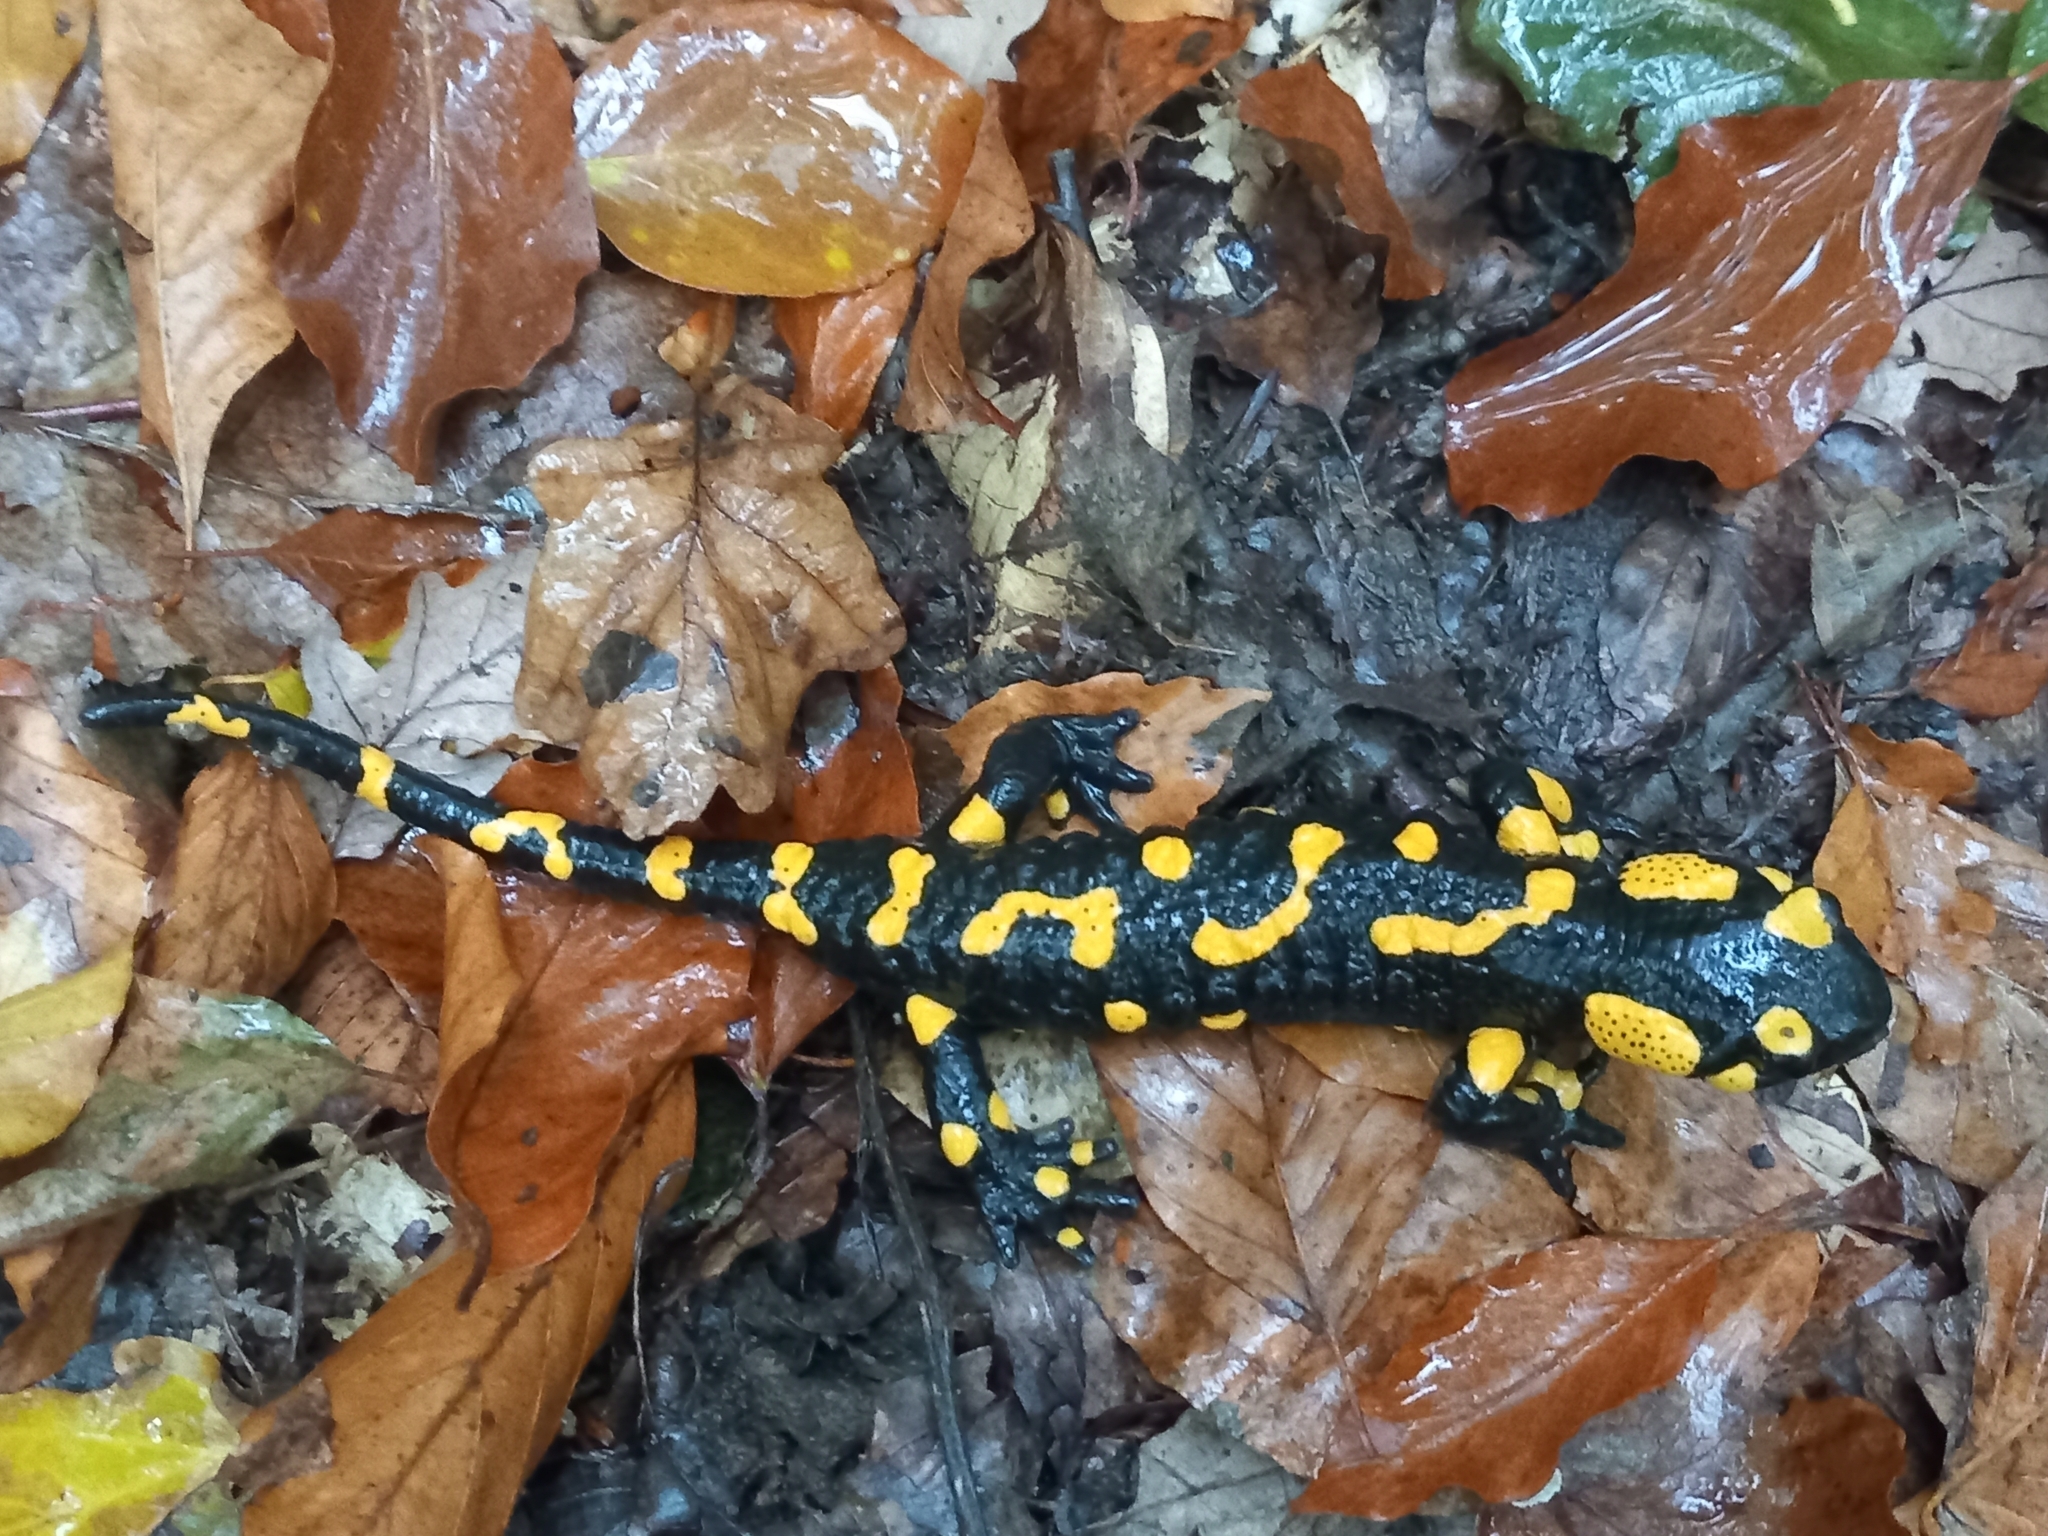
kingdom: Animalia
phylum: Chordata
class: Amphibia
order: Caudata
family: Salamandridae
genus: Salamandra
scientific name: Salamandra salamandra
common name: Fire salamander
